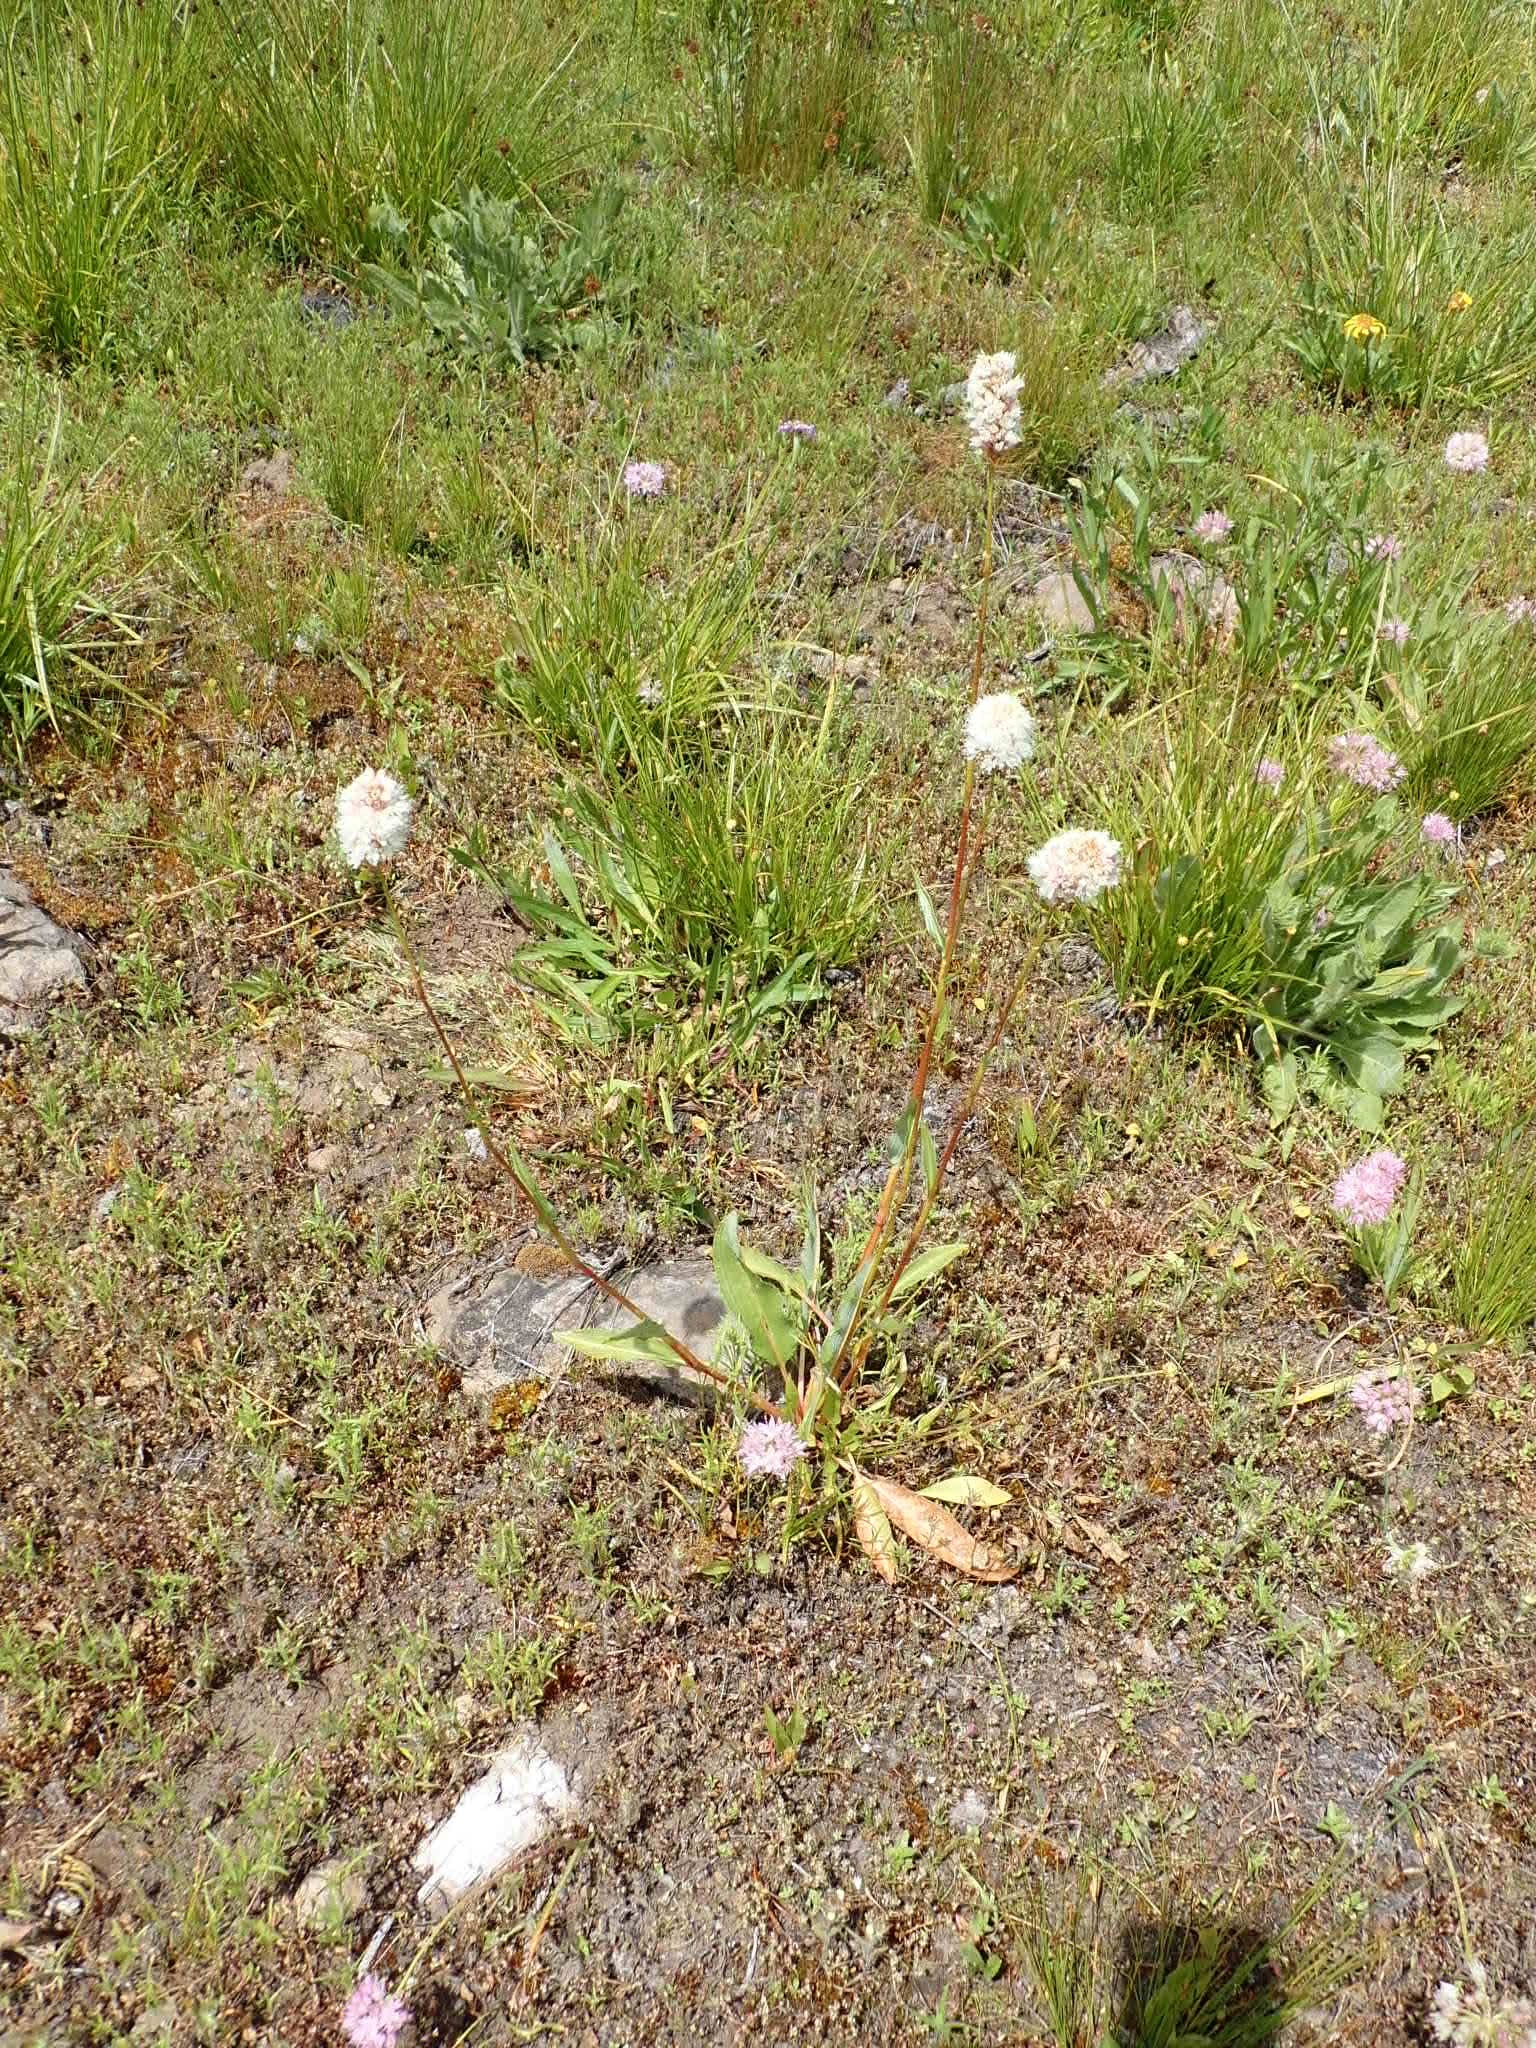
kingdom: Plantae
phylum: Tracheophyta
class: Magnoliopsida
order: Caryophyllales
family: Polygonaceae
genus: Bistorta
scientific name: Bistorta bistortoides
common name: American bistort
